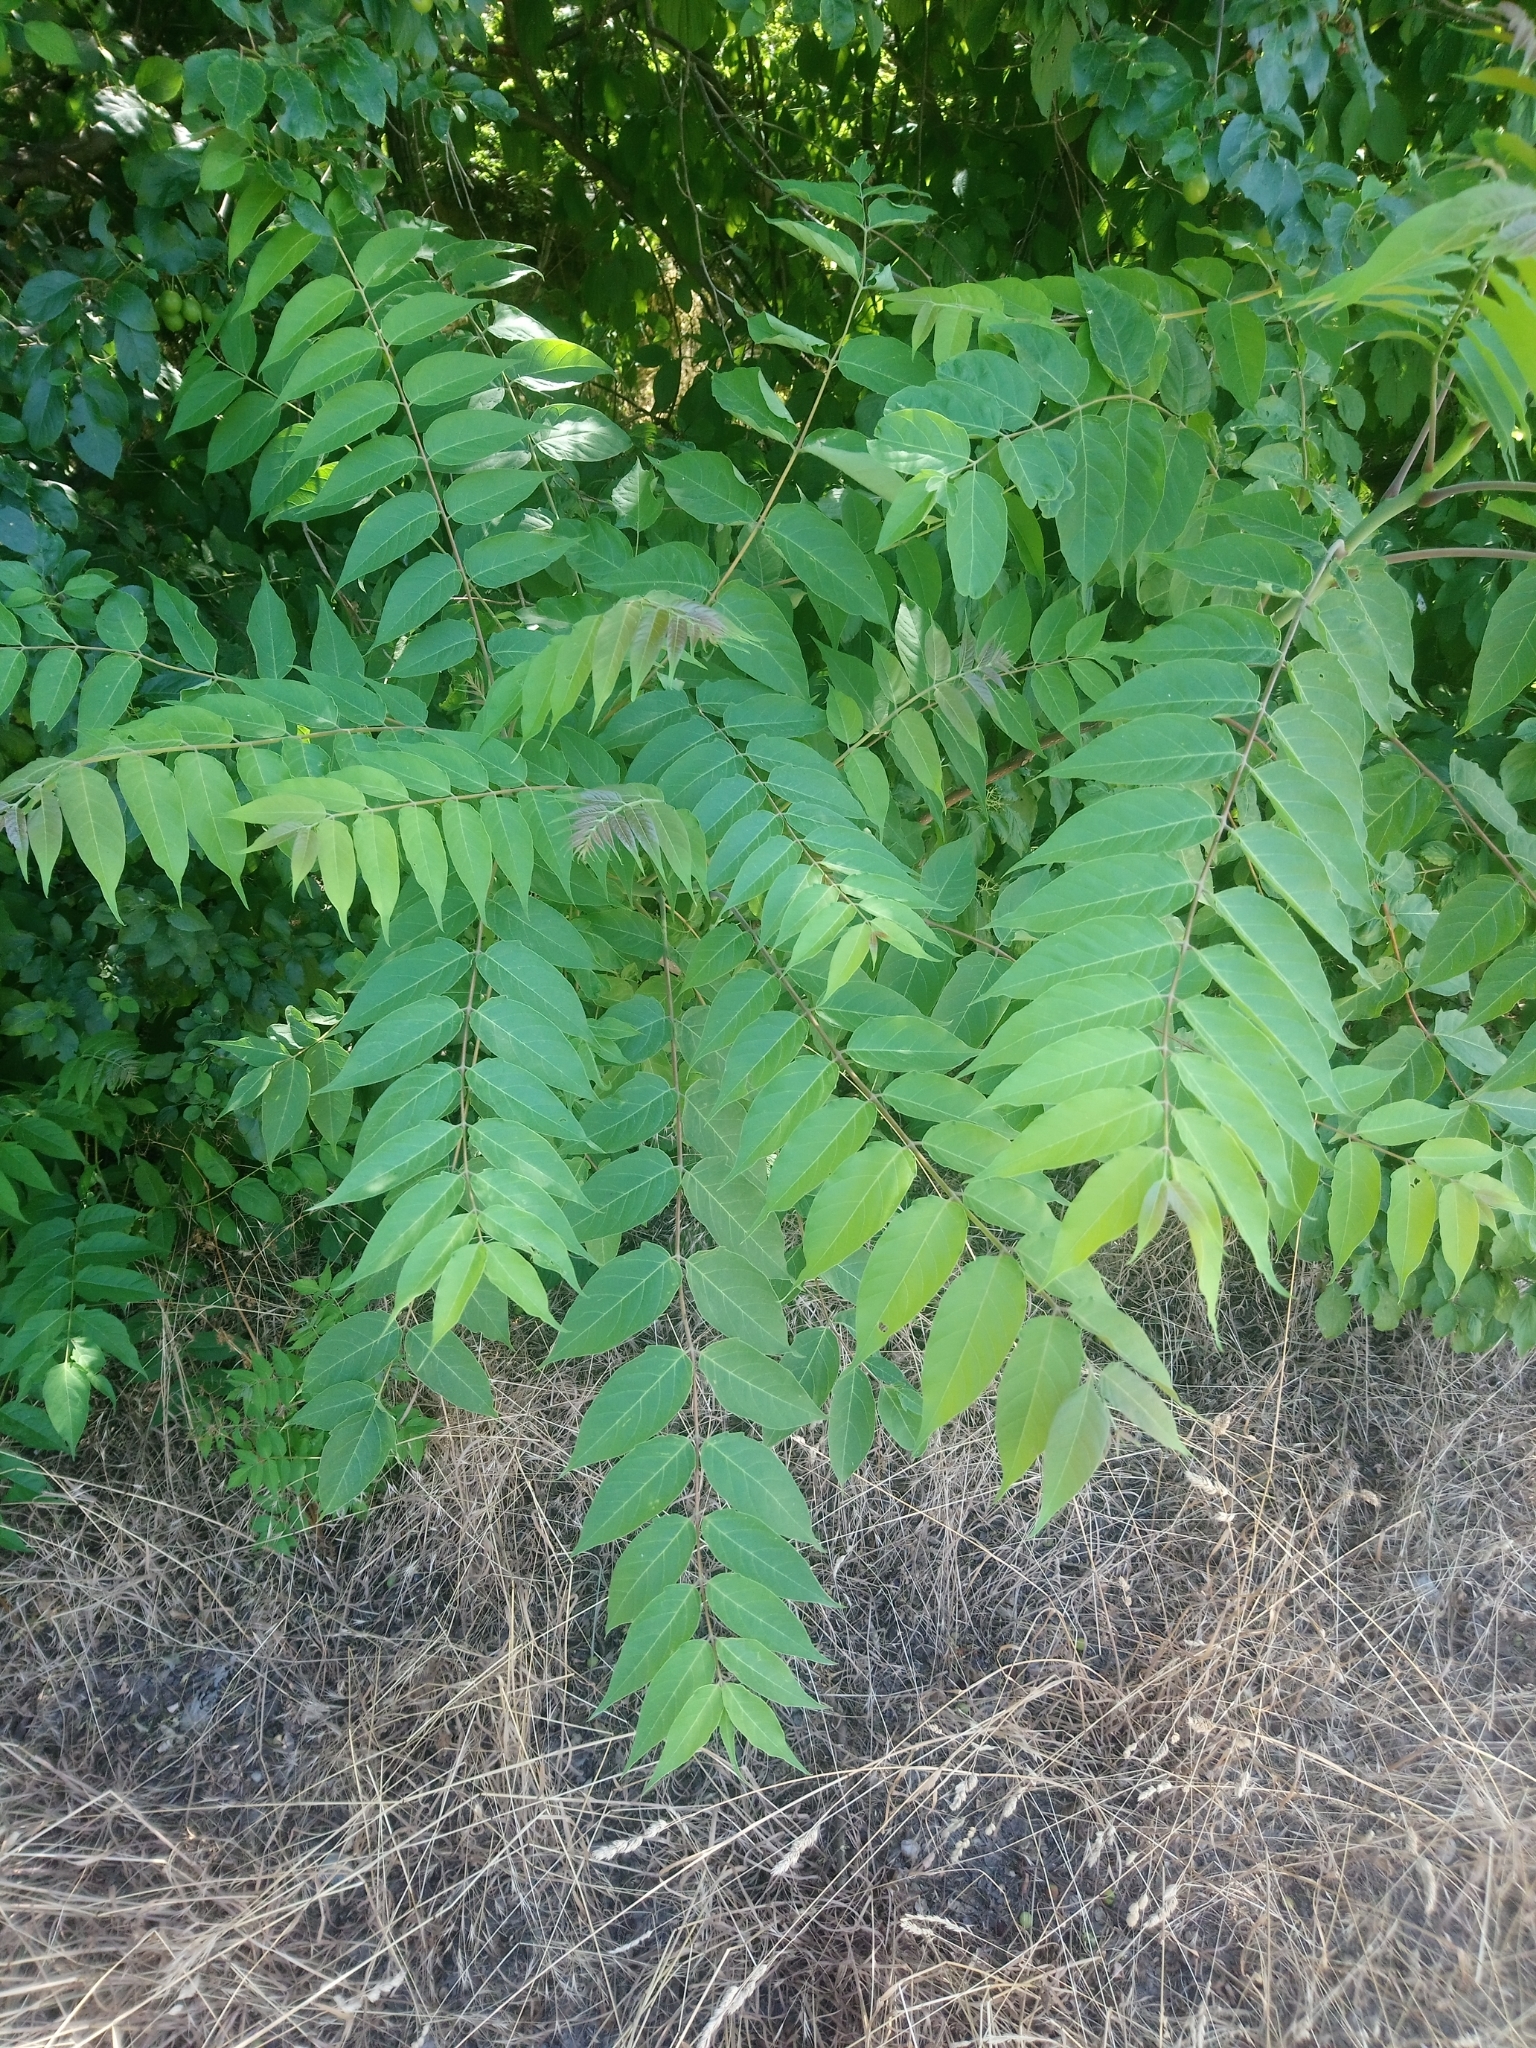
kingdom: Plantae
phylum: Tracheophyta
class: Magnoliopsida
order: Sapindales
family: Simaroubaceae
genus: Ailanthus
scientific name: Ailanthus altissima
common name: Tree-of-heaven
